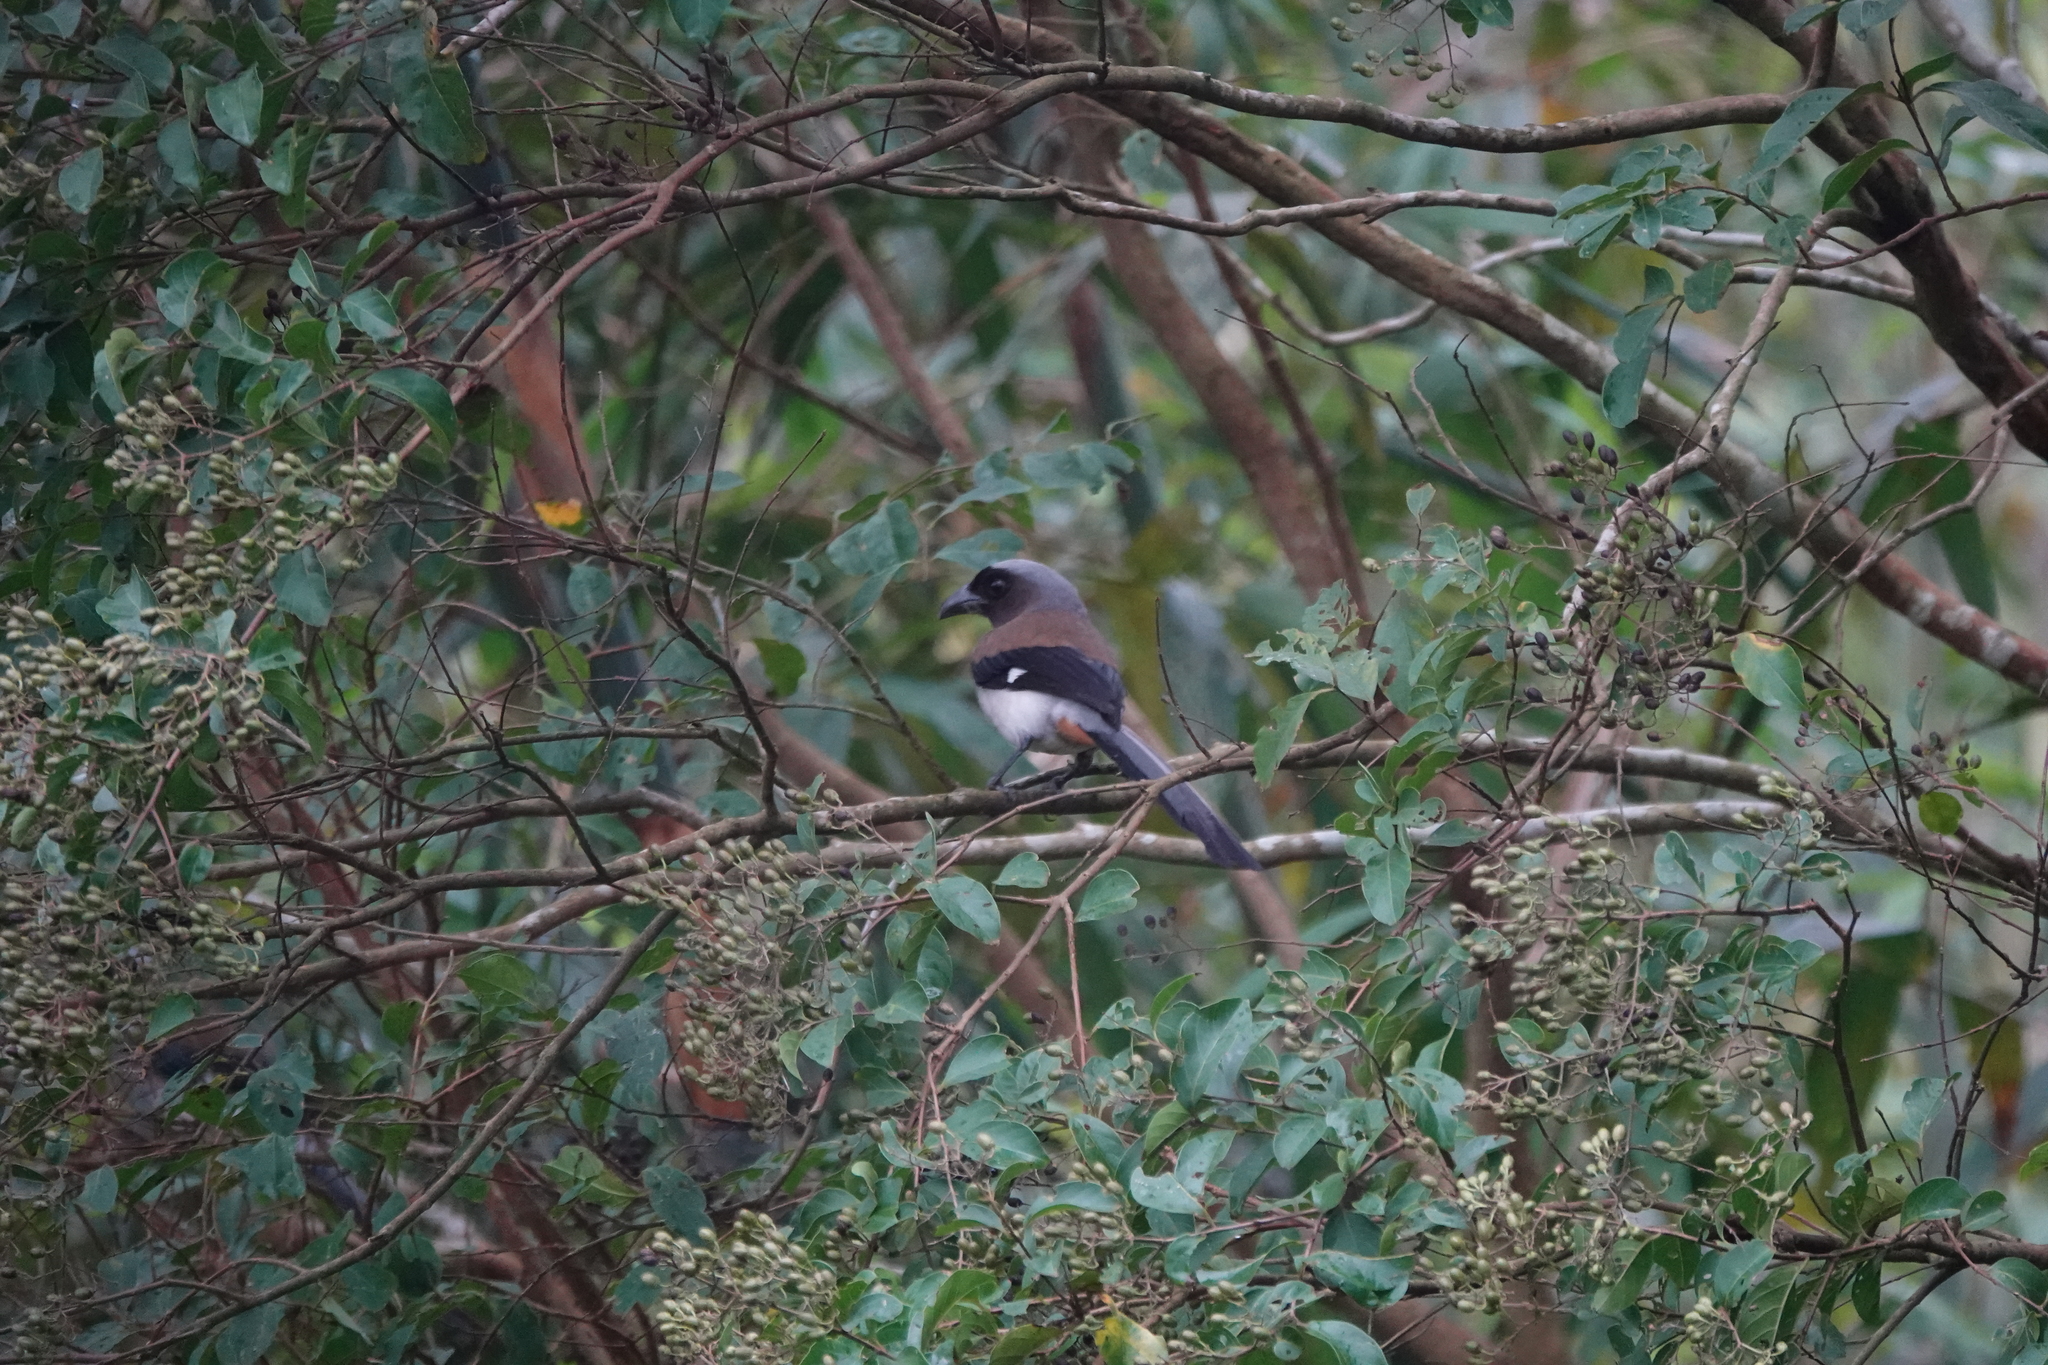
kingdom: Animalia
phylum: Chordata
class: Aves
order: Passeriformes
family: Corvidae
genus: Dendrocitta
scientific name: Dendrocitta formosae
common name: Grey treepie
